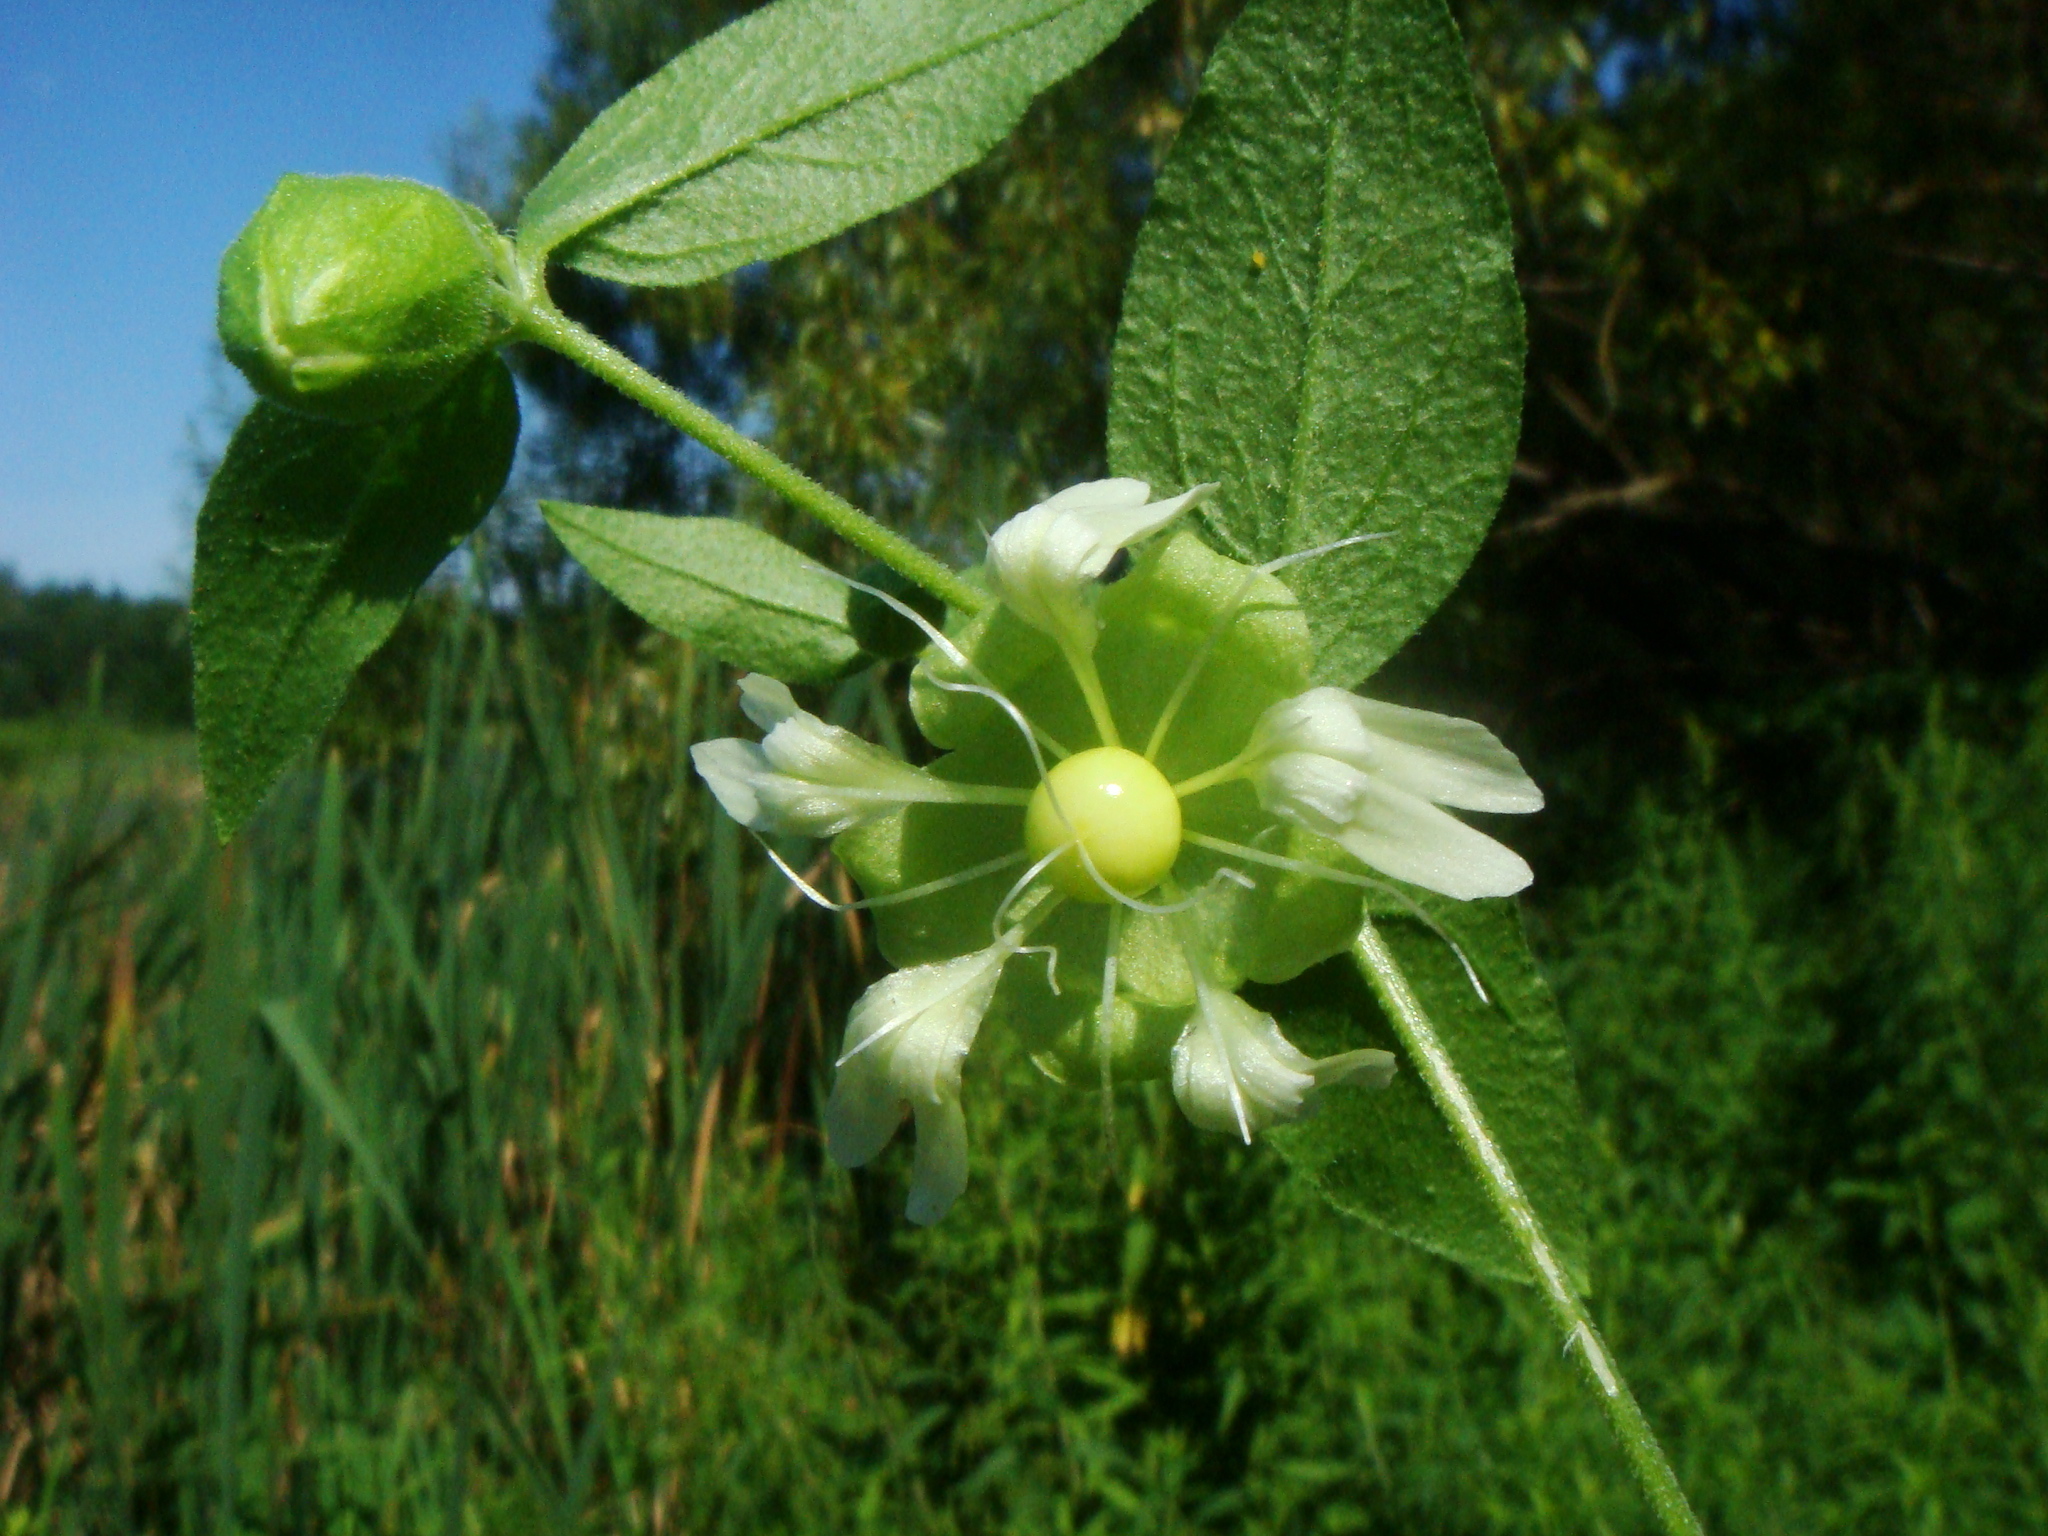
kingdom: Plantae
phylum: Tracheophyta
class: Magnoliopsida
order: Caryophyllales
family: Caryophyllaceae
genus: Silene
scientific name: Silene baccifera
